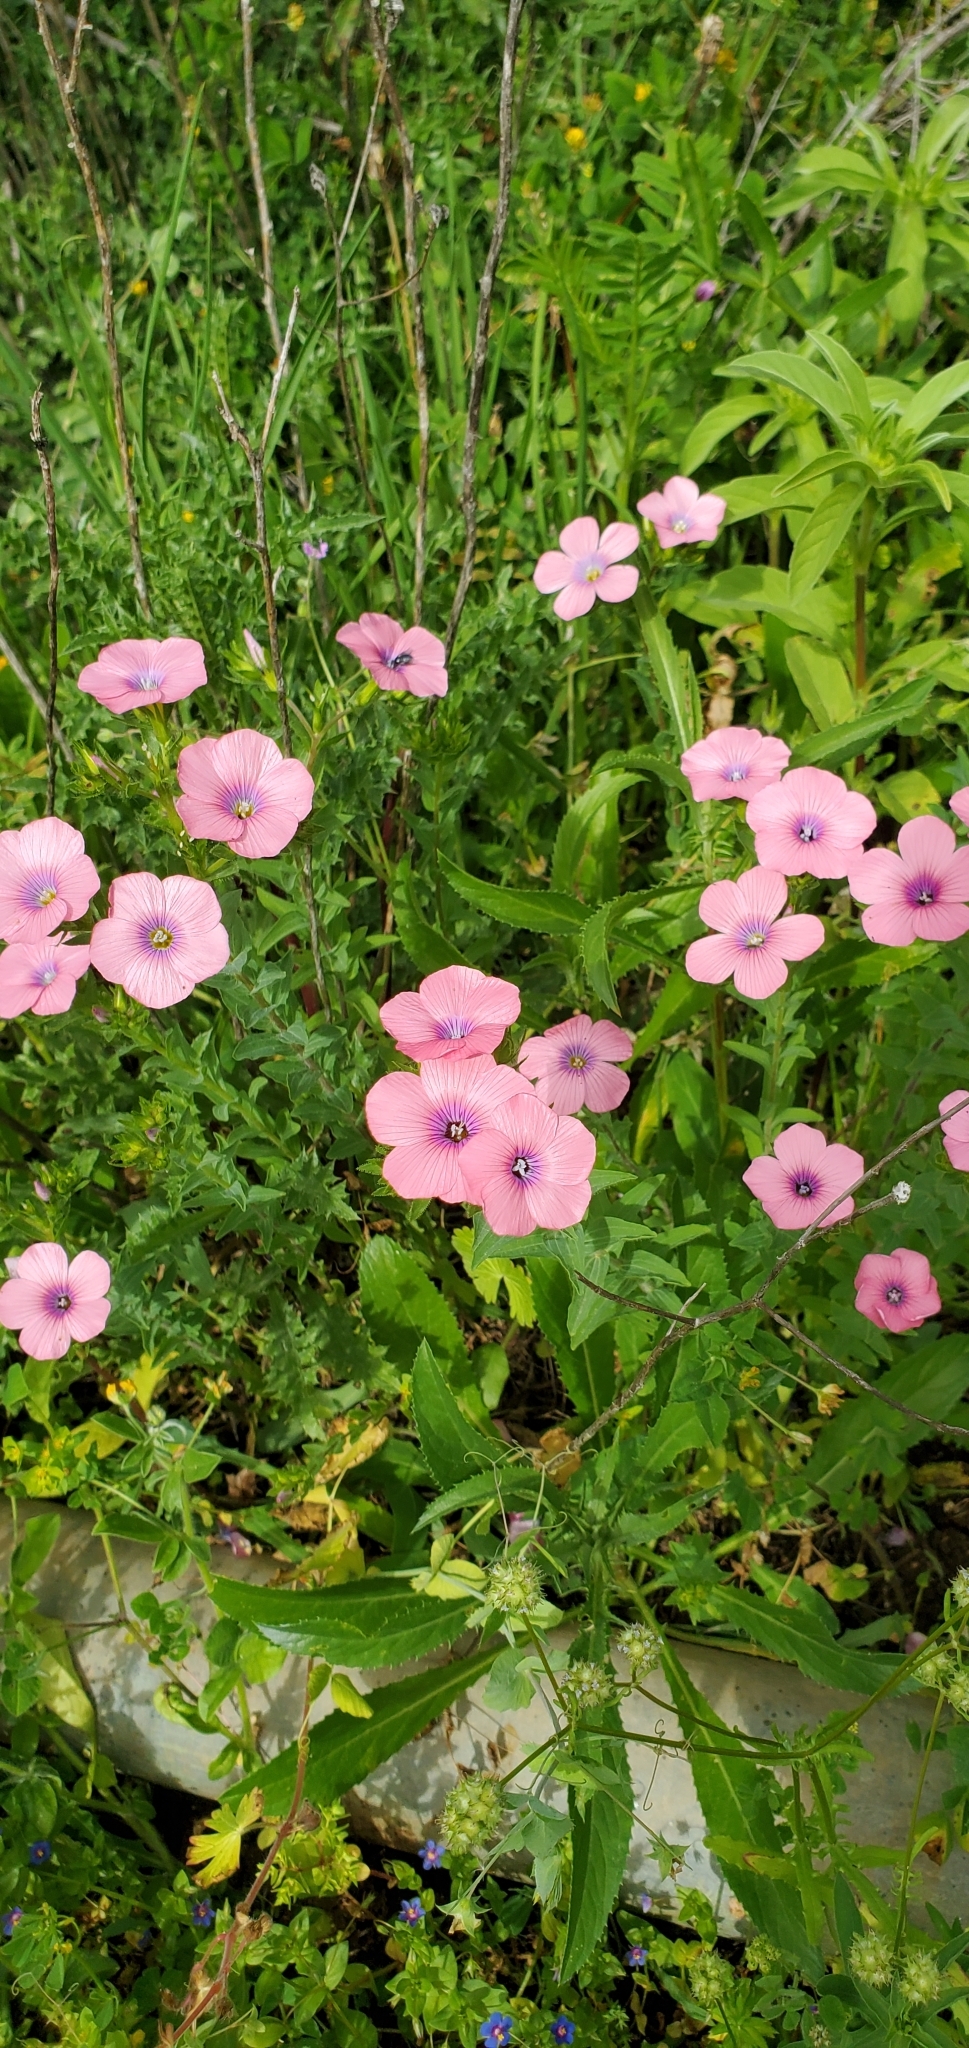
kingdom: Plantae
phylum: Tracheophyta
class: Magnoliopsida
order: Malpighiales
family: Linaceae
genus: Linum
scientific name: Linum pubescens
